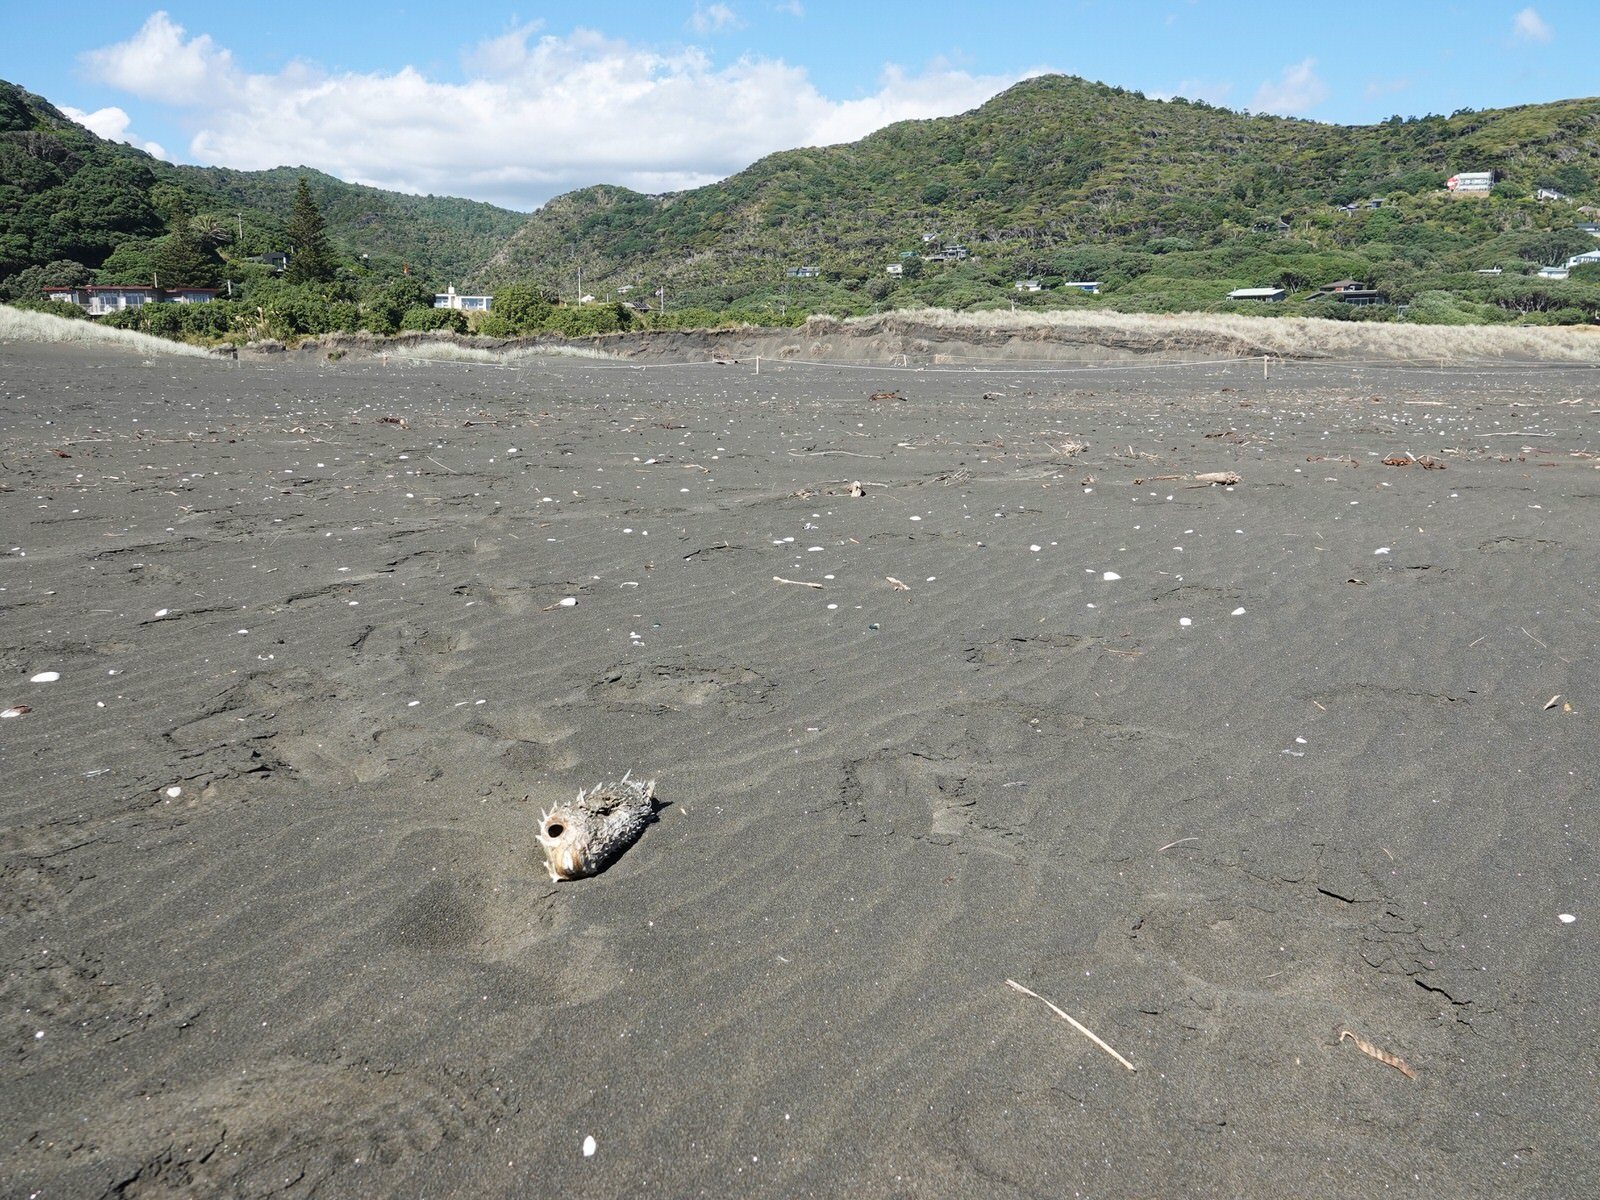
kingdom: Animalia
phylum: Chordata
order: Tetraodontiformes
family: Diodontidae
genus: Allomycterus
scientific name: Allomycterus pilatus
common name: No common name
